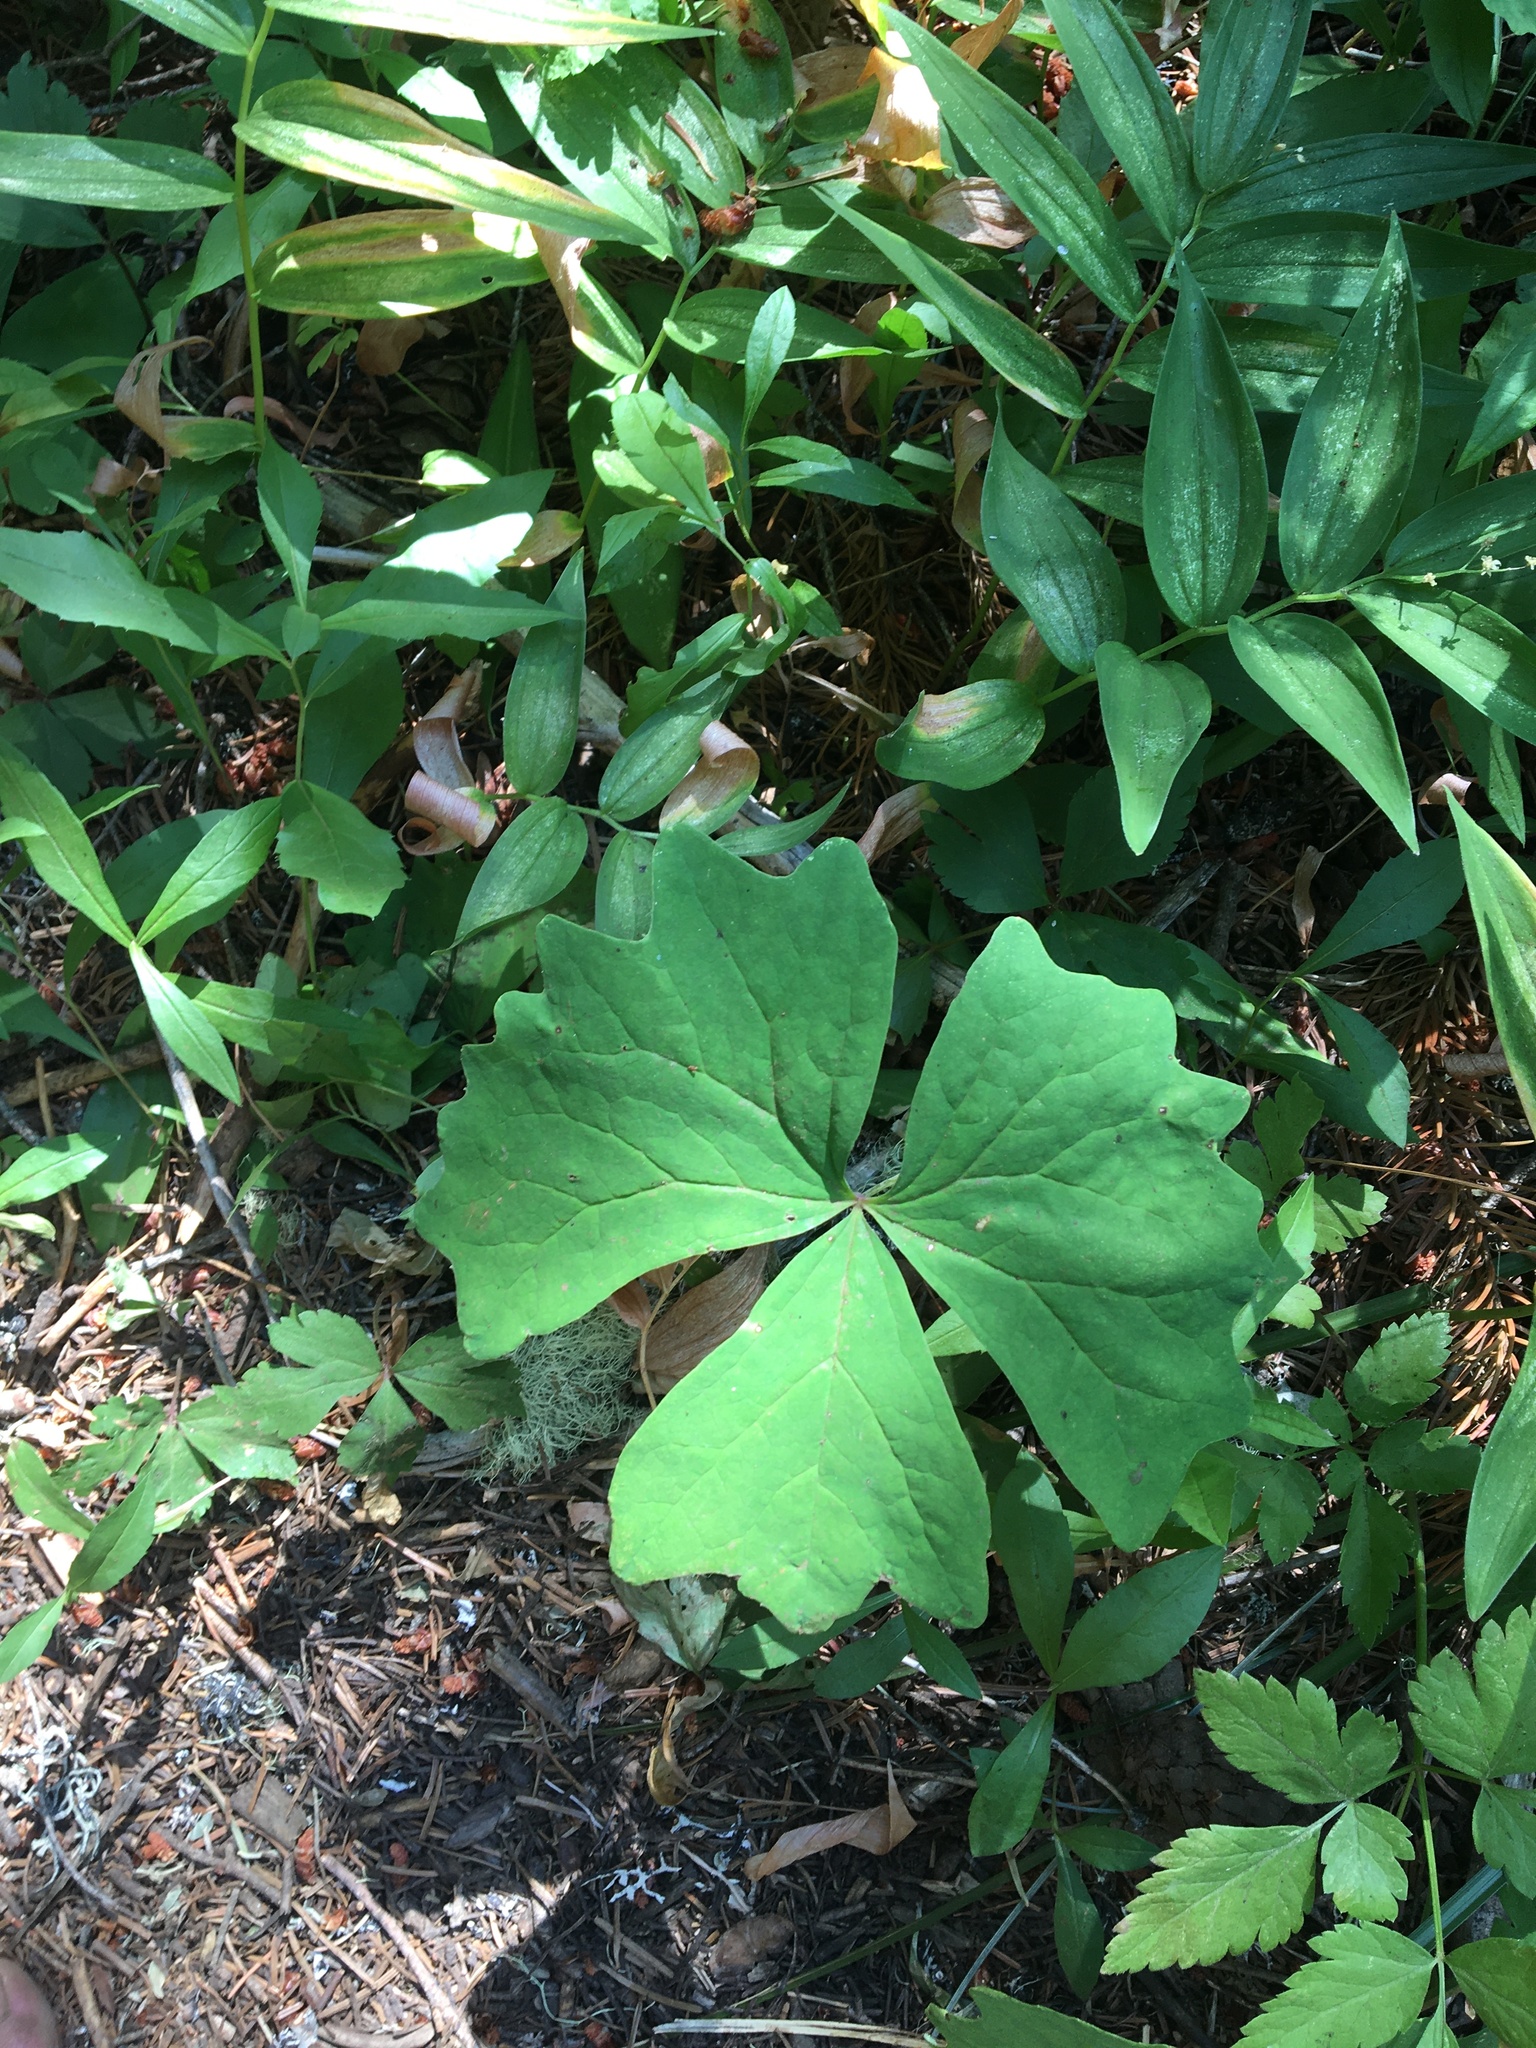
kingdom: Plantae
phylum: Tracheophyta
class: Magnoliopsida
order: Ranunculales
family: Berberidaceae
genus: Achlys
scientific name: Achlys triphylla
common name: Vanilla-leaf
